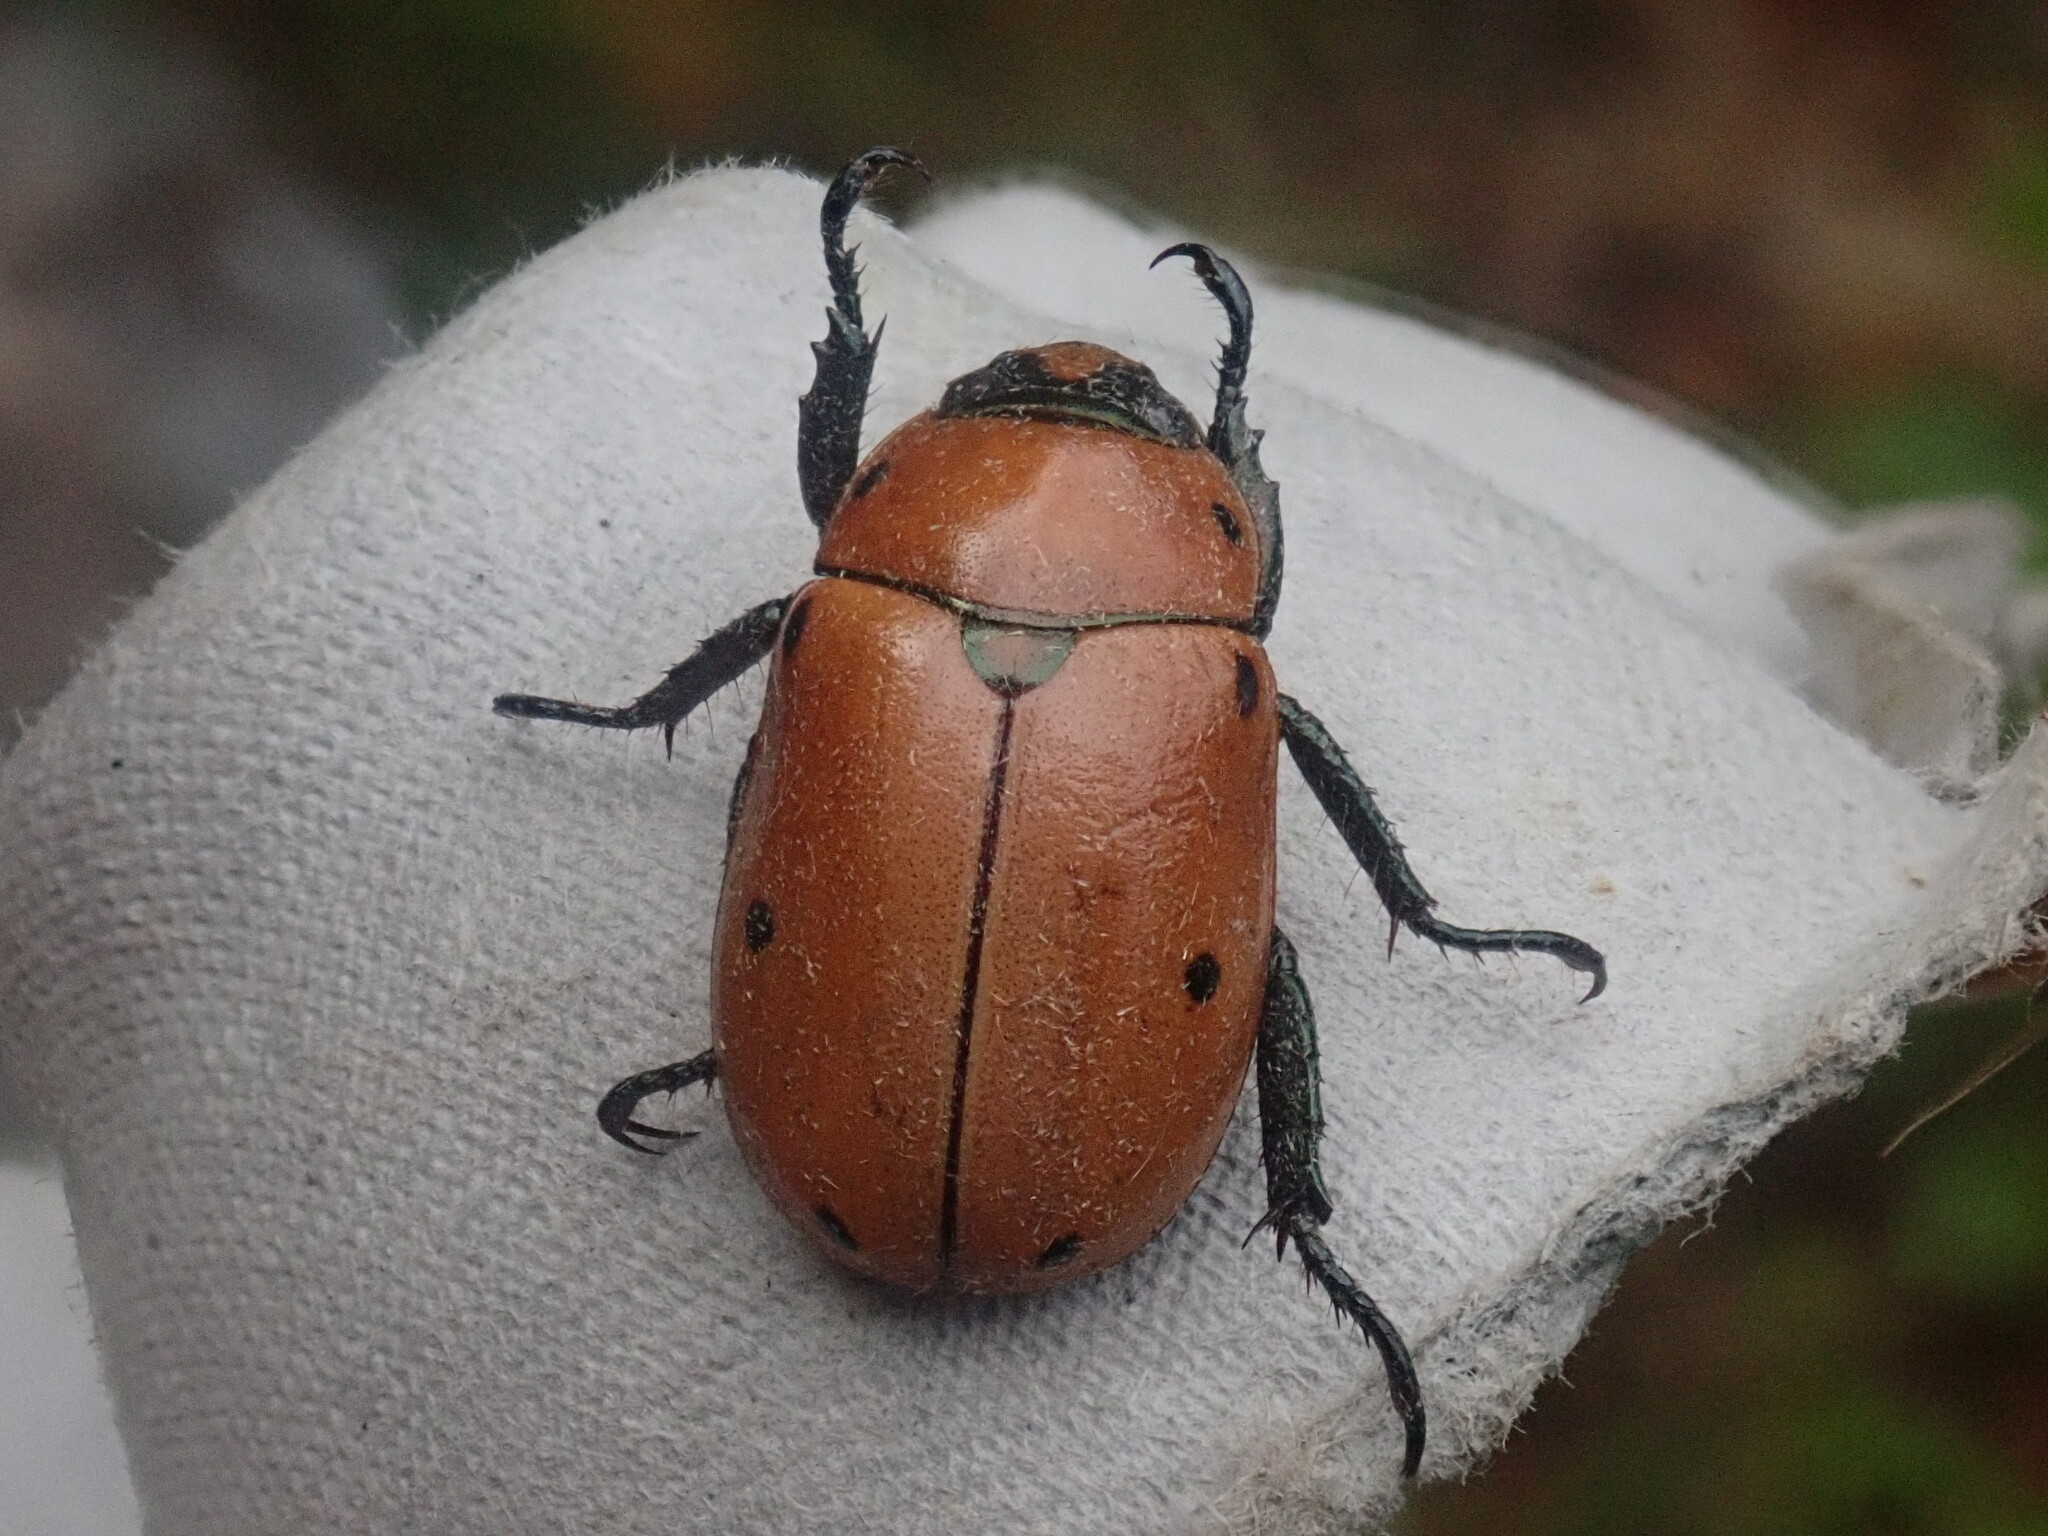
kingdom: Animalia
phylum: Arthropoda
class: Insecta
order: Coleoptera
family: Scarabaeidae
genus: Pelidnota
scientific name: Pelidnota punctata
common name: Grapevine beetle
